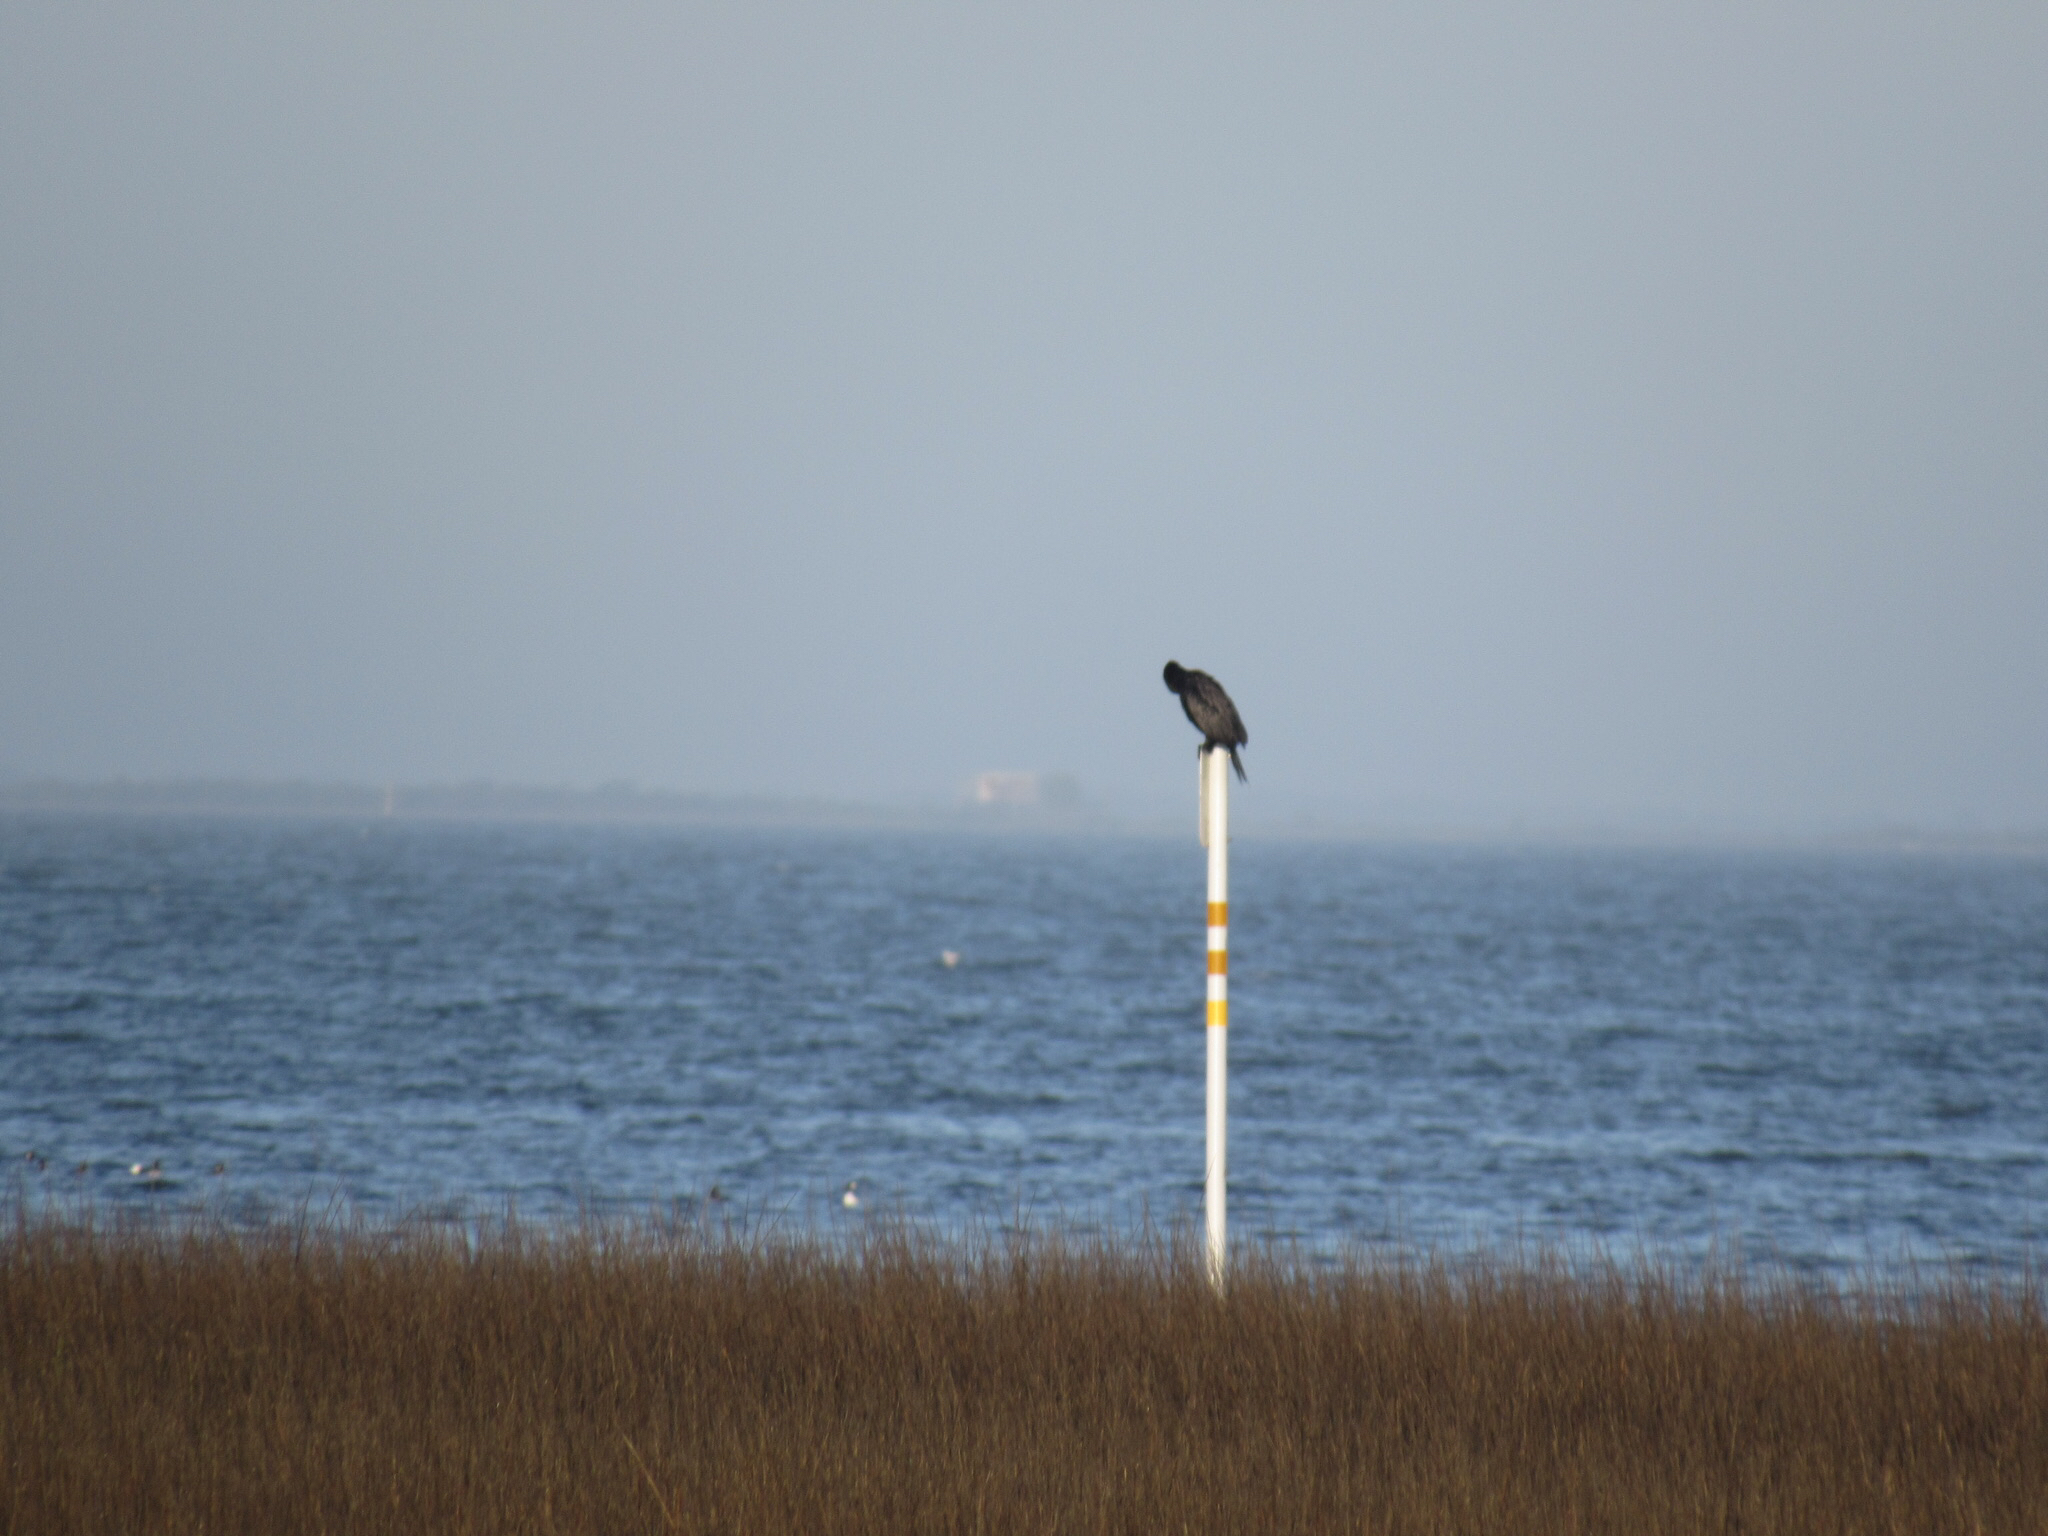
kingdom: Animalia
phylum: Chordata
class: Aves
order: Suliformes
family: Phalacrocoracidae
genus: Phalacrocorax
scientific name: Phalacrocorax brasilianus
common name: Neotropic cormorant
